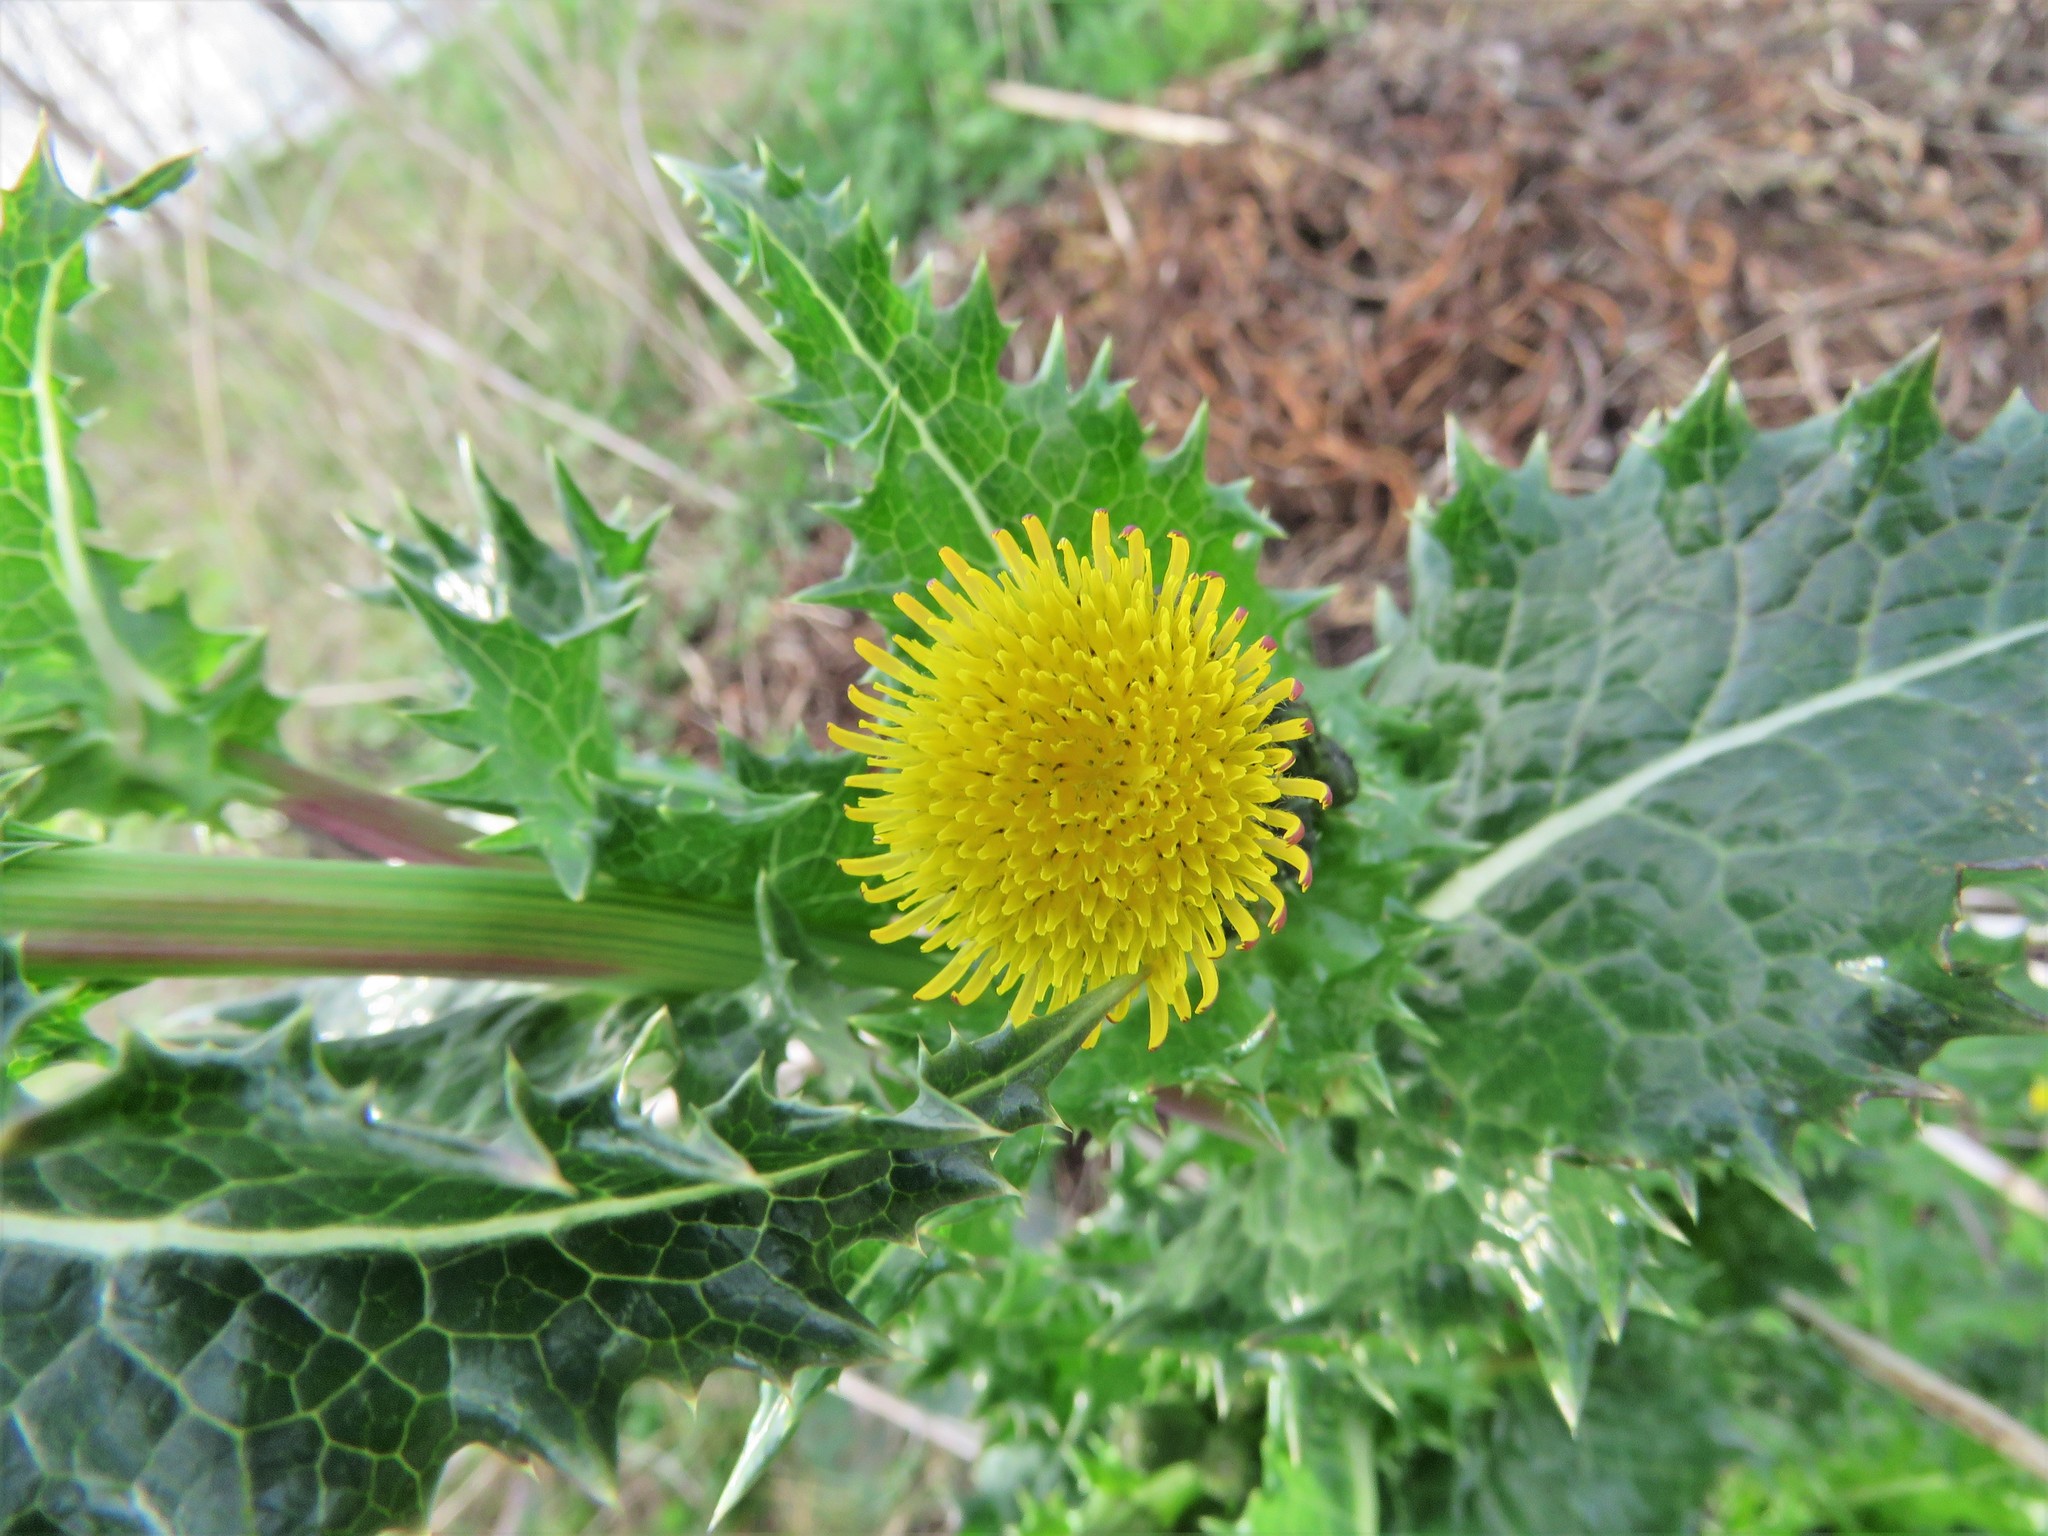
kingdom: Plantae
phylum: Tracheophyta
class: Magnoliopsida
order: Asterales
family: Asteraceae
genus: Sonchus
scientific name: Sonchus asper
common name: Prickly sow-thistle
